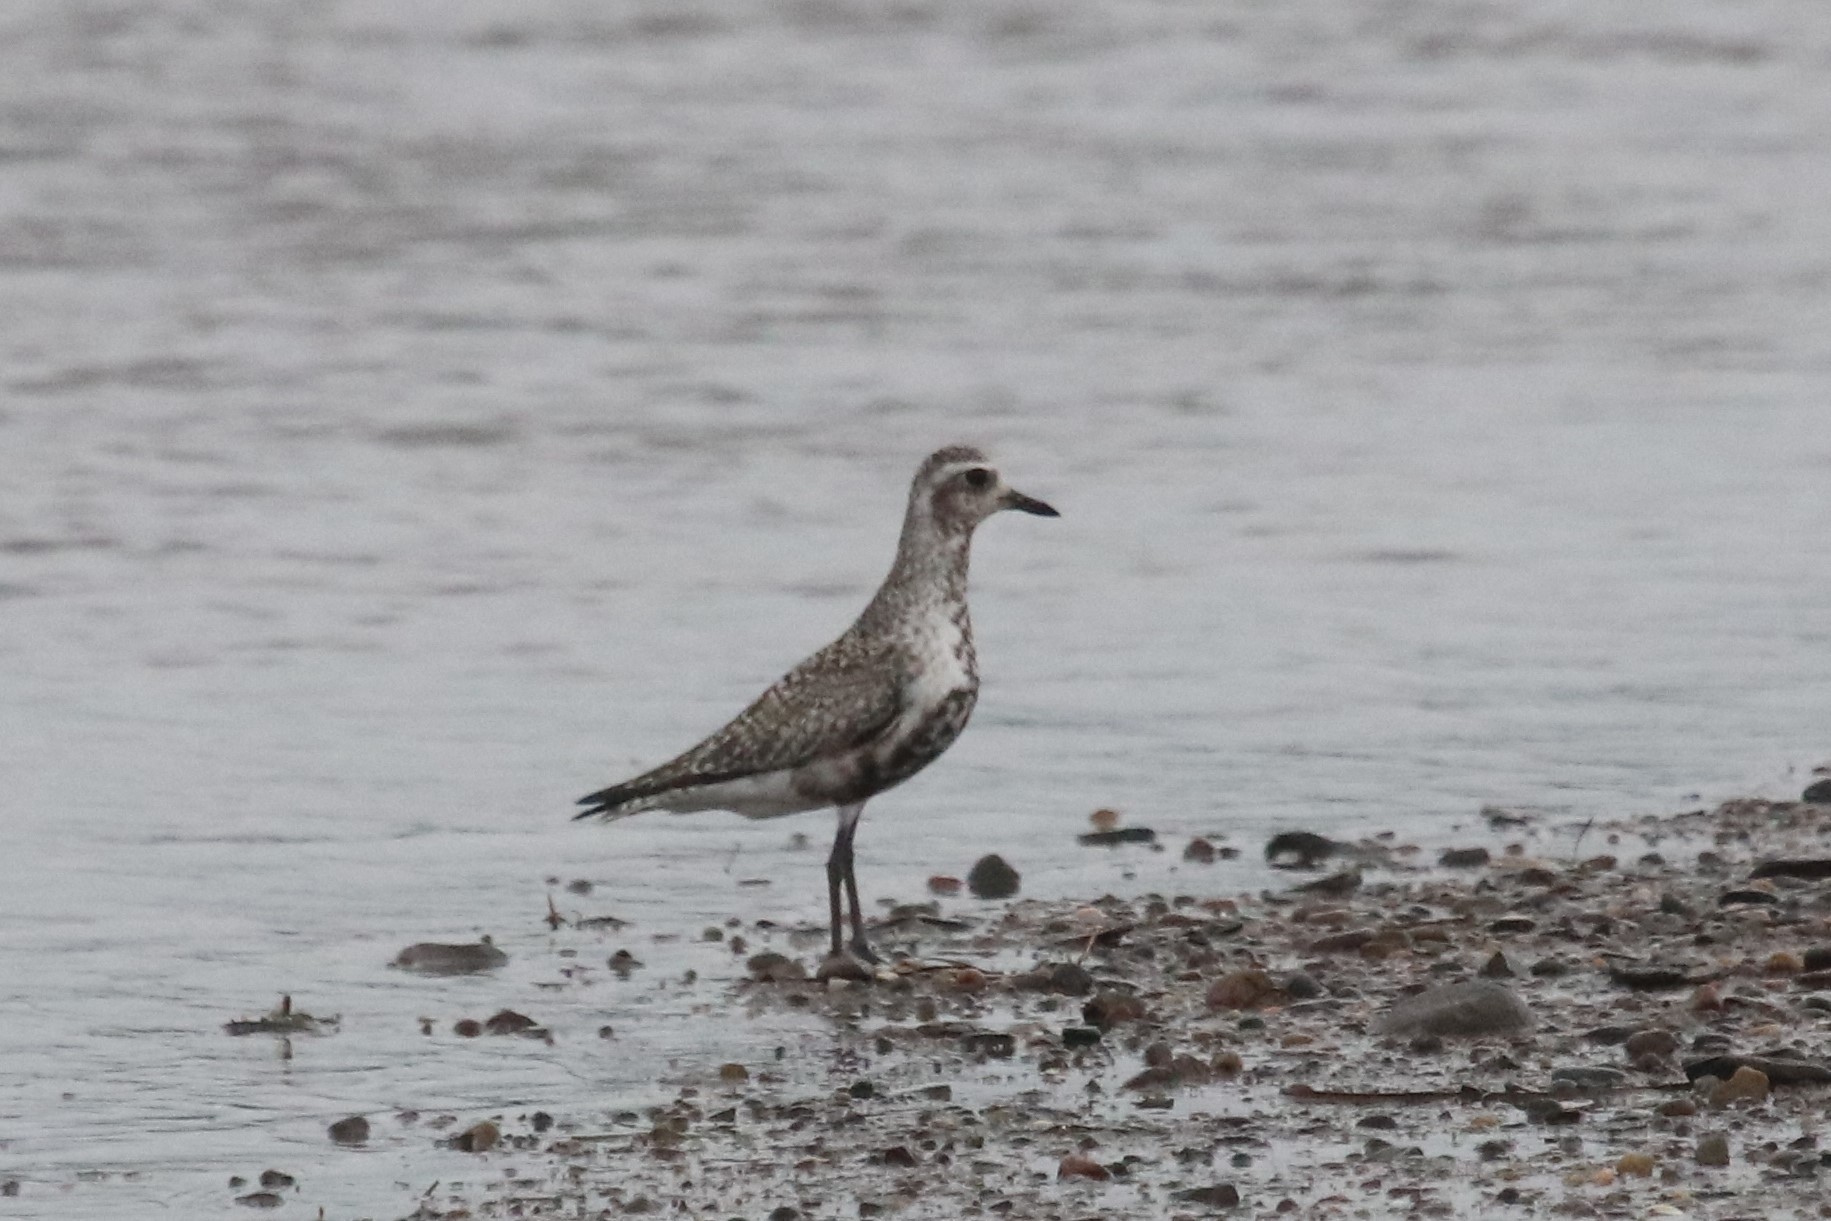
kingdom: Animalia
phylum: Chordata
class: Aves
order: Charadriiformes
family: Charadriidae
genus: Pluvialis
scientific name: Pluvialis squatarola
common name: Grey plover
